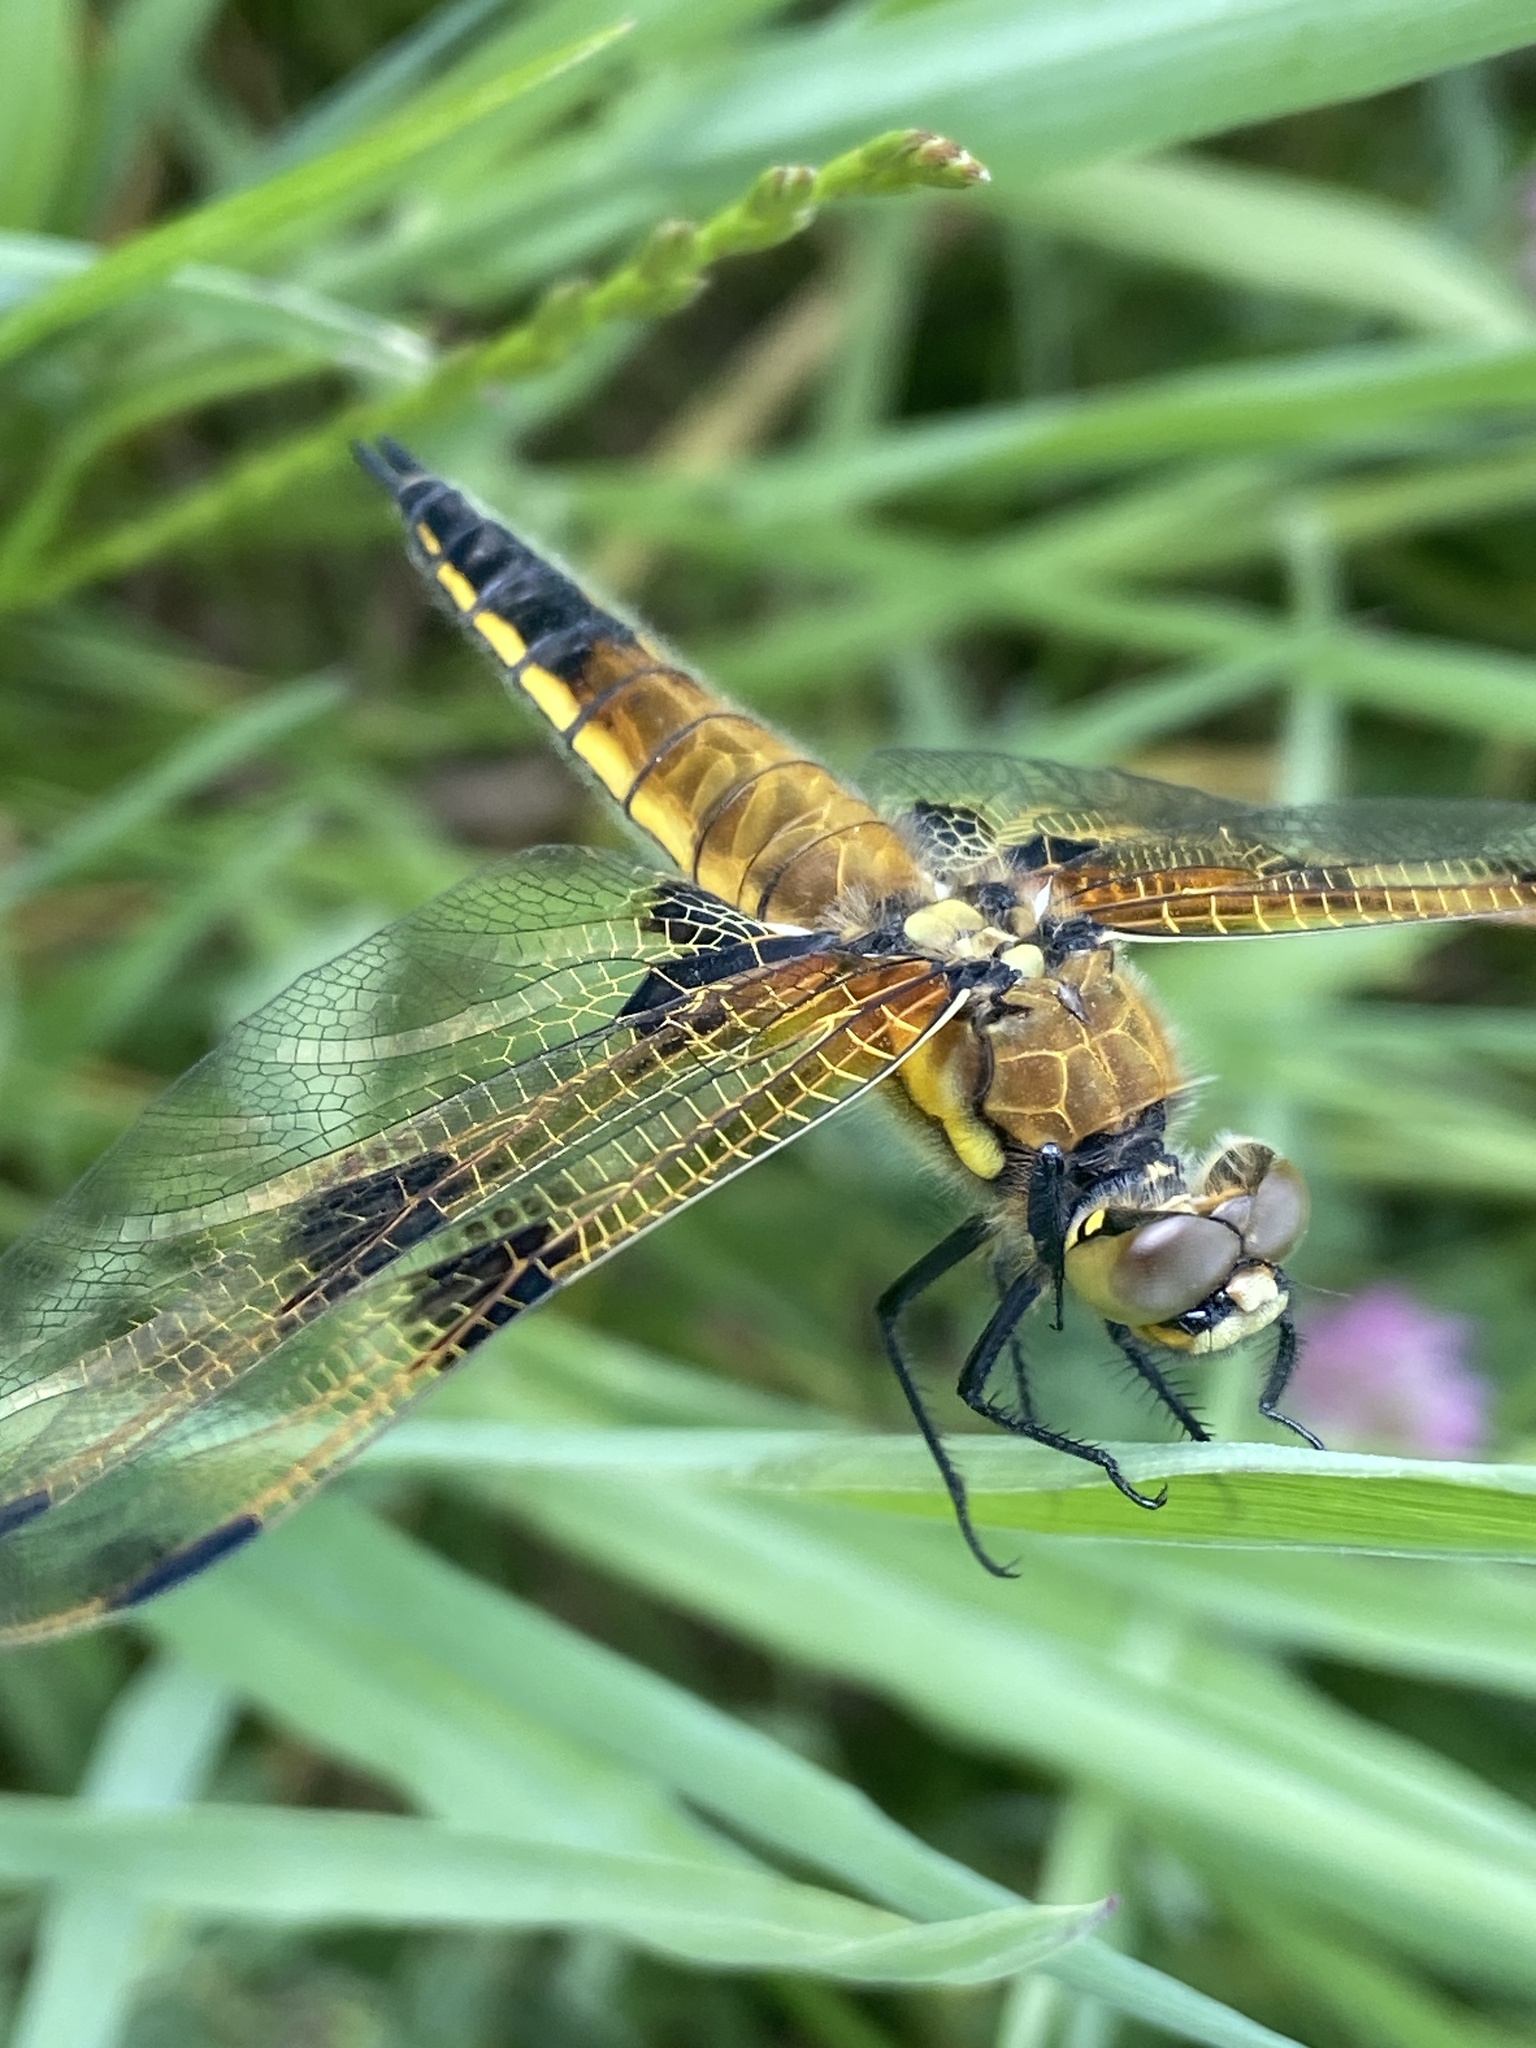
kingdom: Animalia
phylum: Arthropoda
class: Insecta
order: Odonata
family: Libellulidae
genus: Libellula
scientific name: Libellula quadrimaculata
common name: Four-spotted chaser
